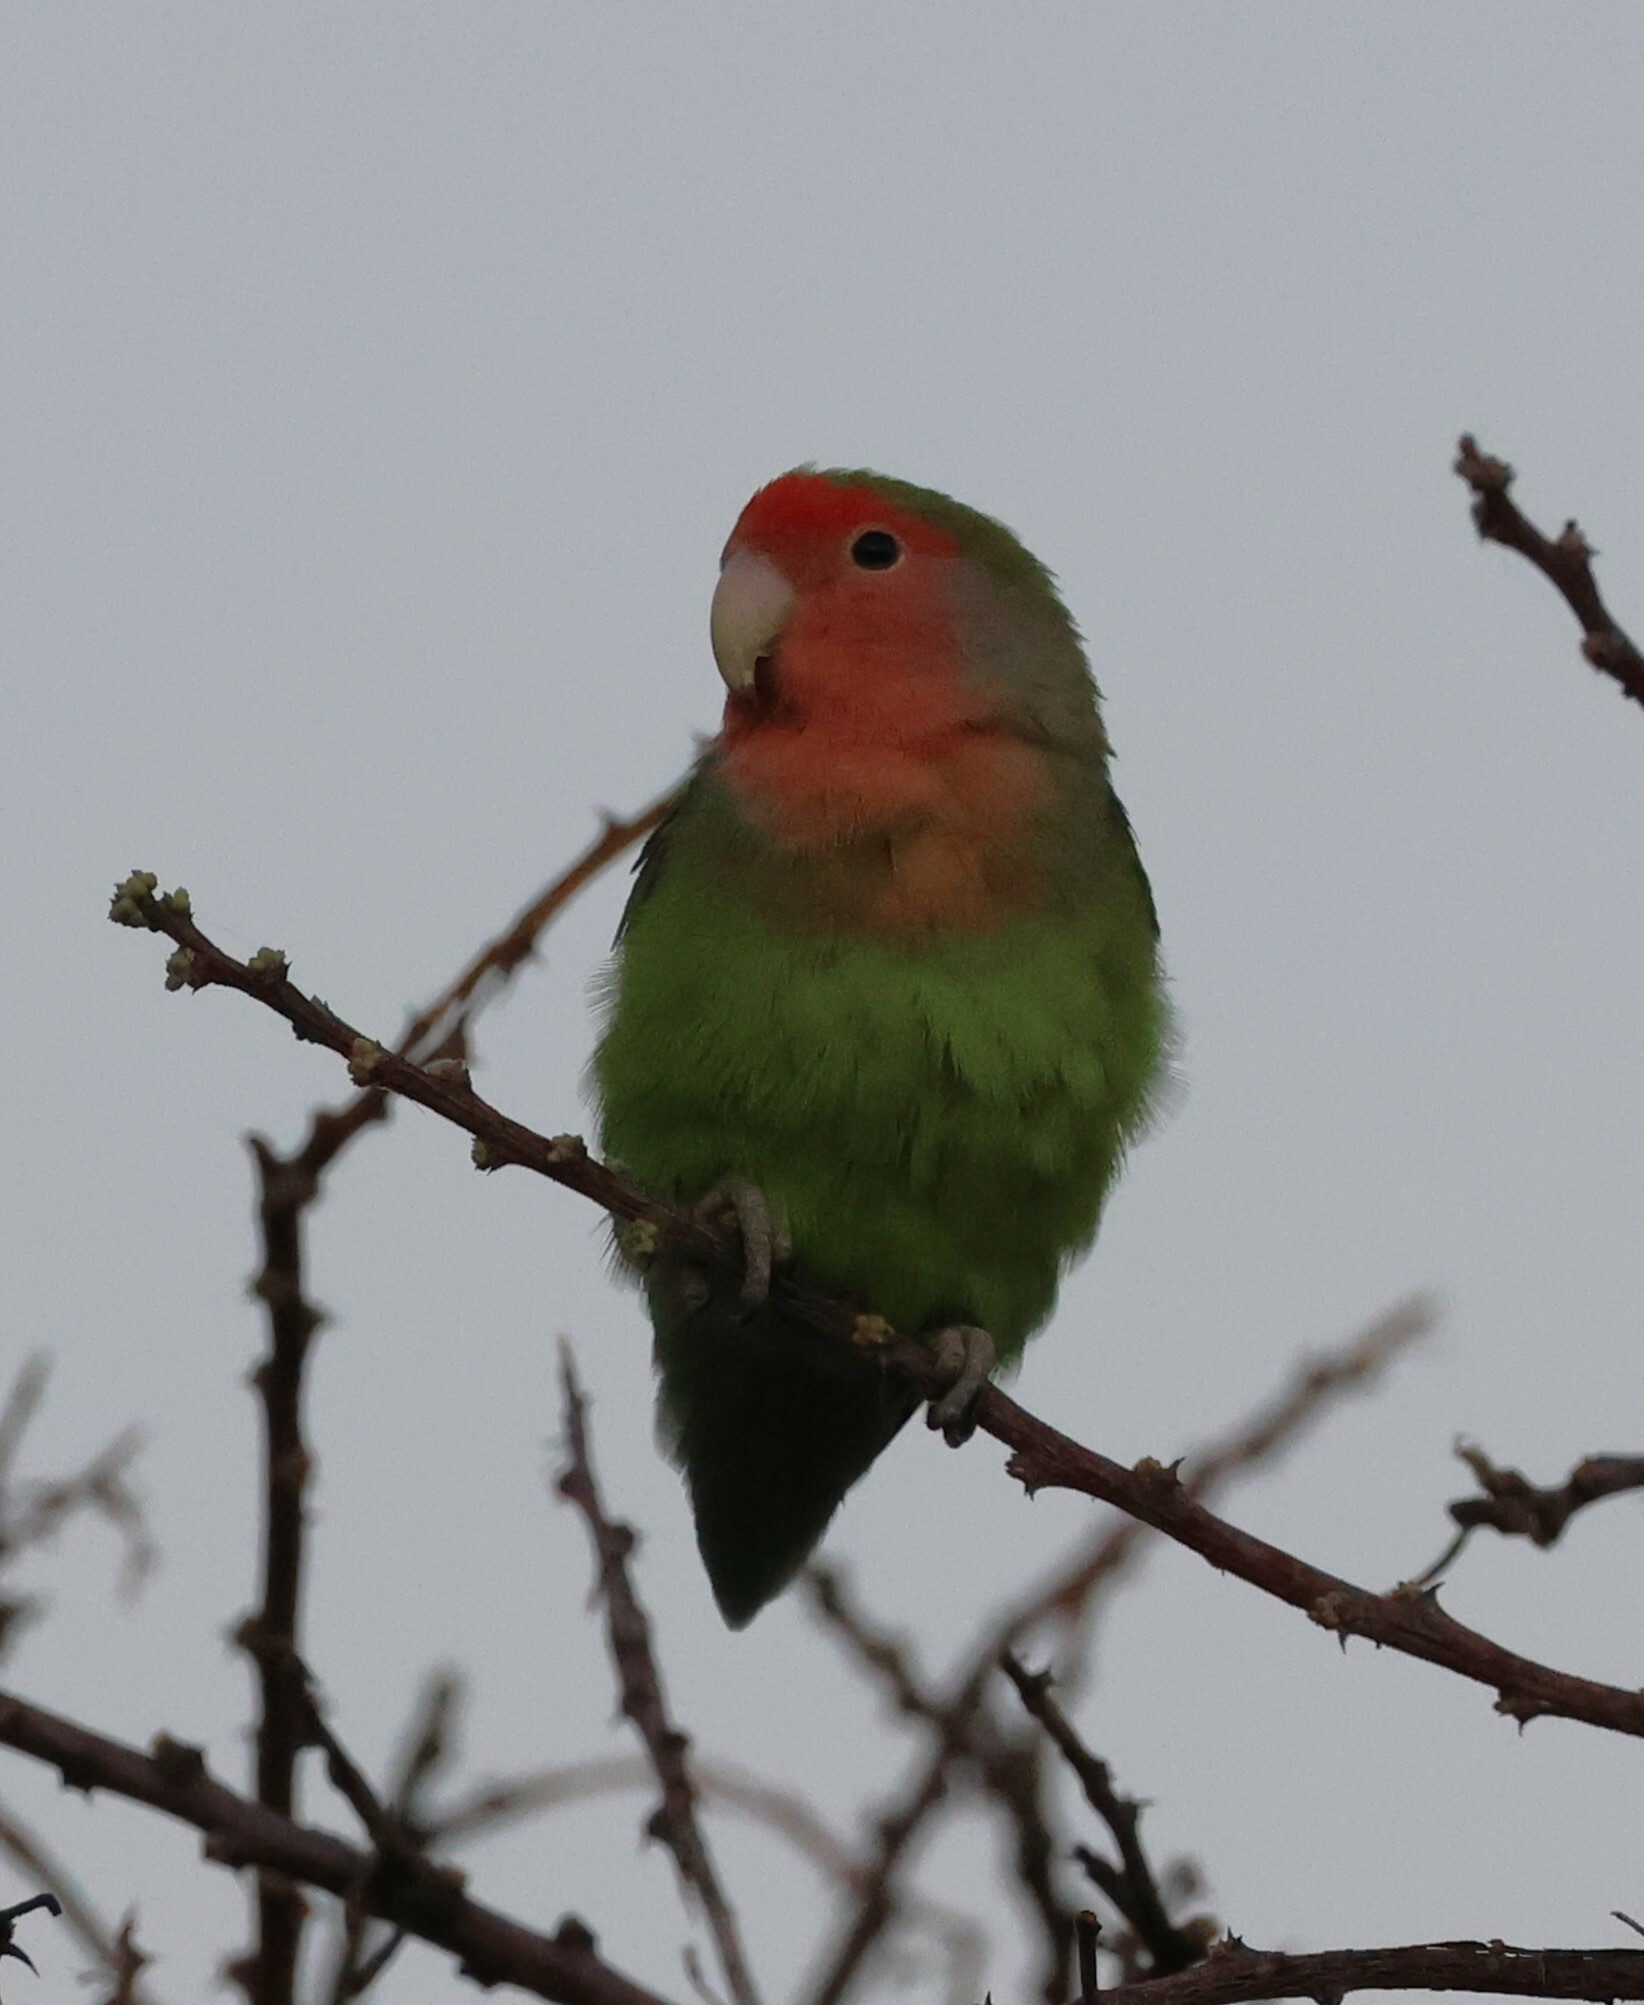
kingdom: Animalia
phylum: Chordata
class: Aves
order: Psittaciformes
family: Psittacidae
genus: Agapornis
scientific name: Agapornis roseicollis
